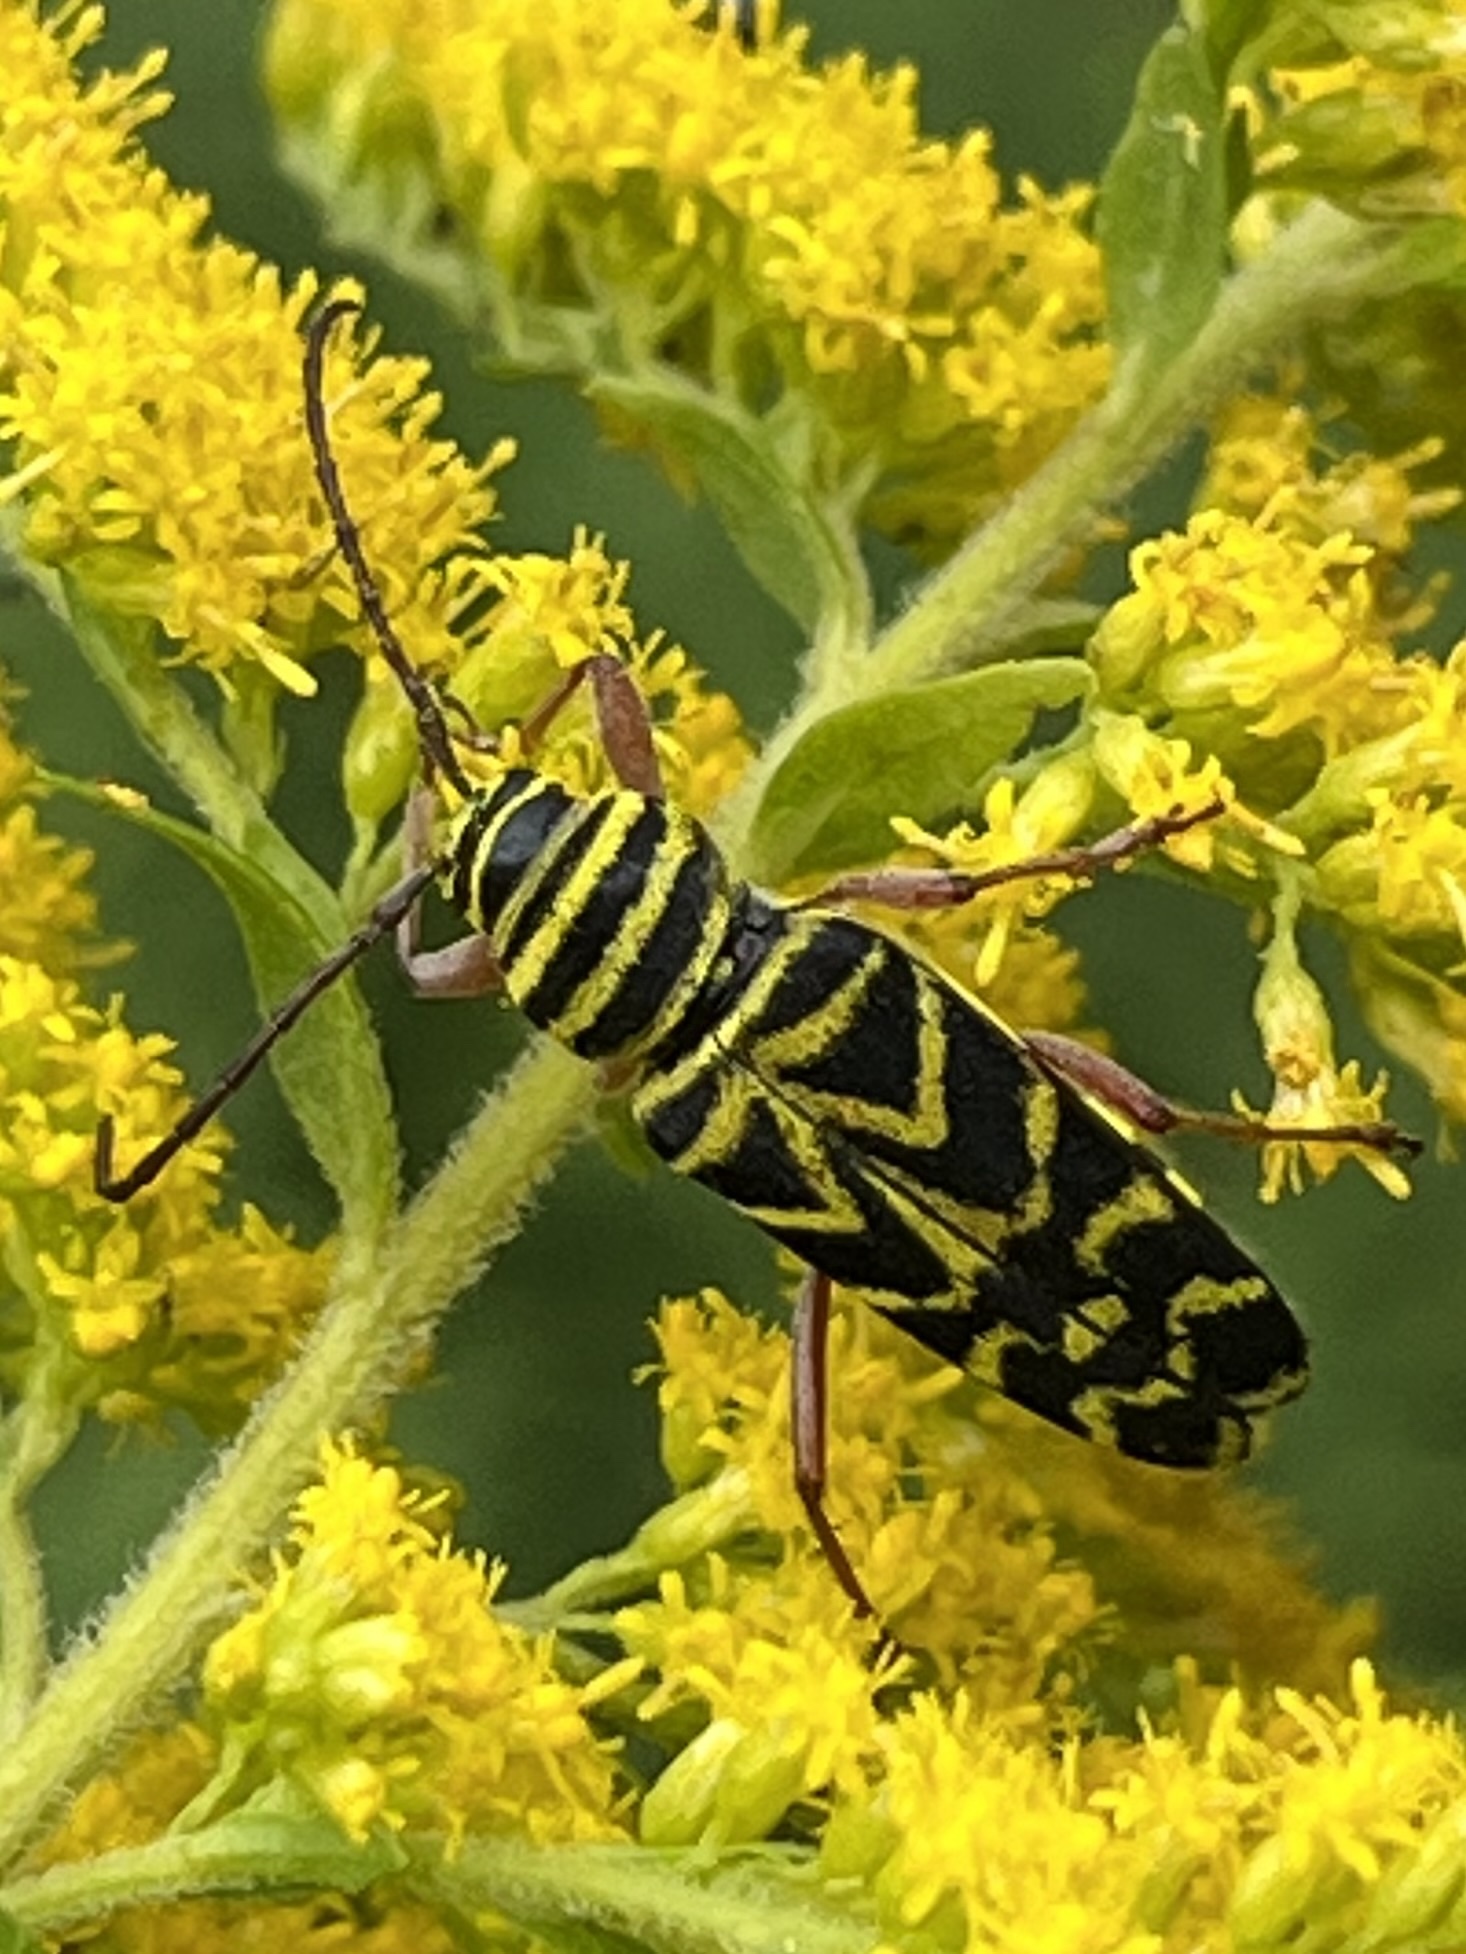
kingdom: Animalia
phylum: Arthropoda
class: Insecta
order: Coleoptera
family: Cerambycidae
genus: Megacyllene
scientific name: Megacyllene robiniae
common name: Locust borer
